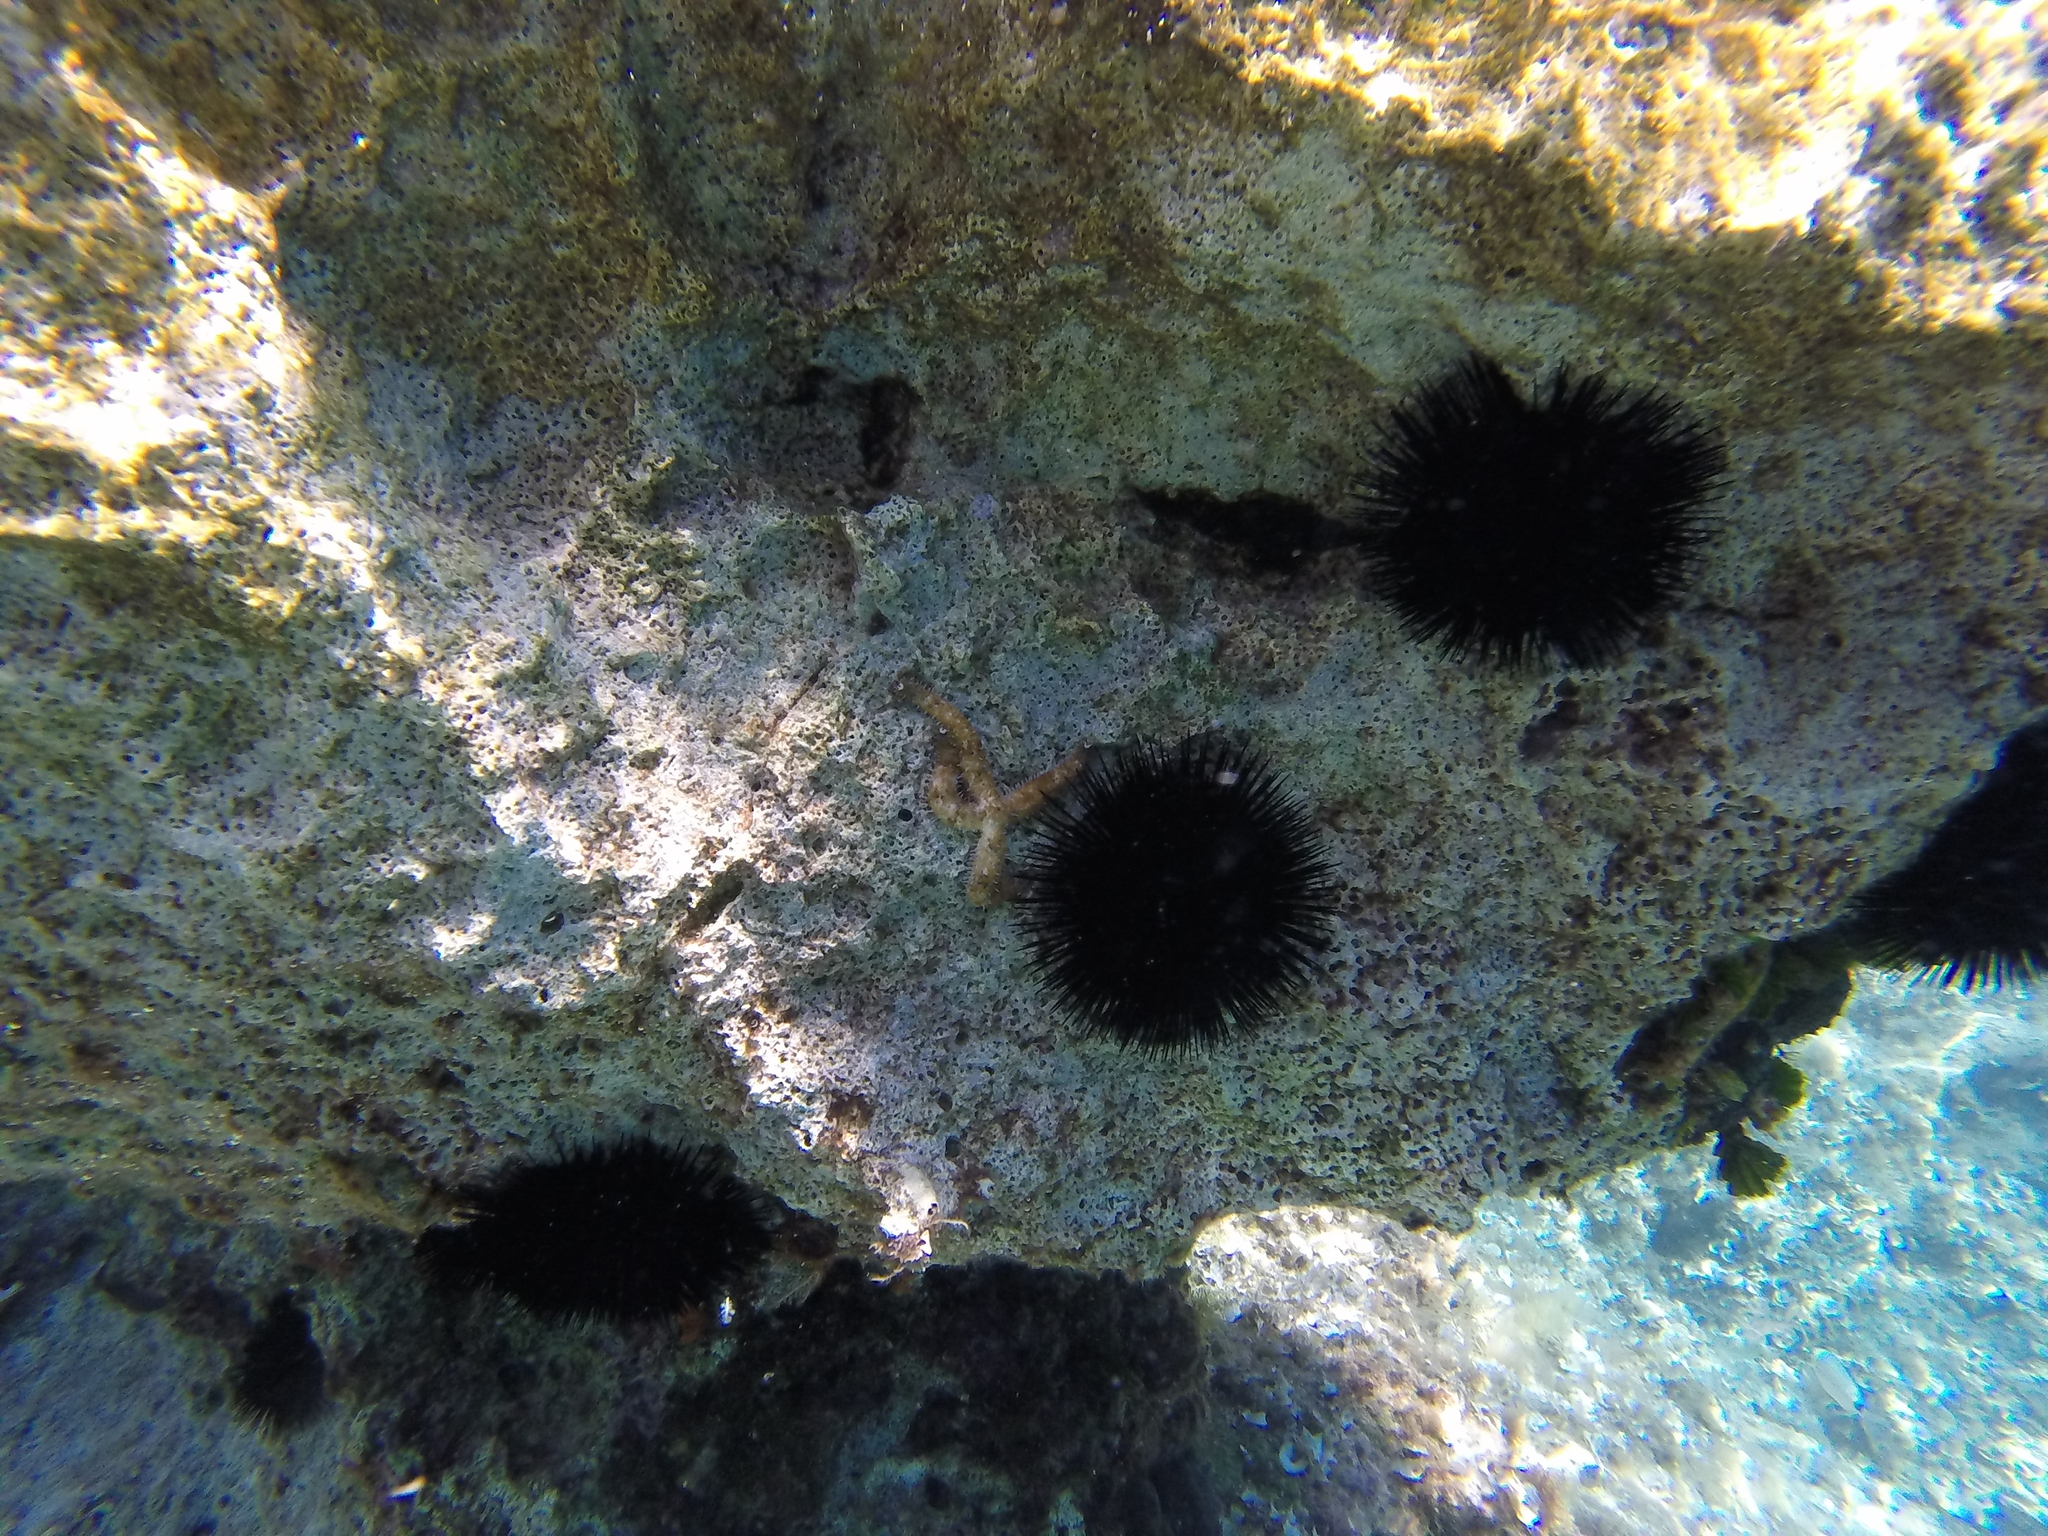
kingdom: Animalia
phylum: Echinodermata
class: Asteroidea
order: Forcipulatida
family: Asteriidae
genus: Coscinasterias
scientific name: Coscinasterias tenuispina
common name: Blue spiny starfish
